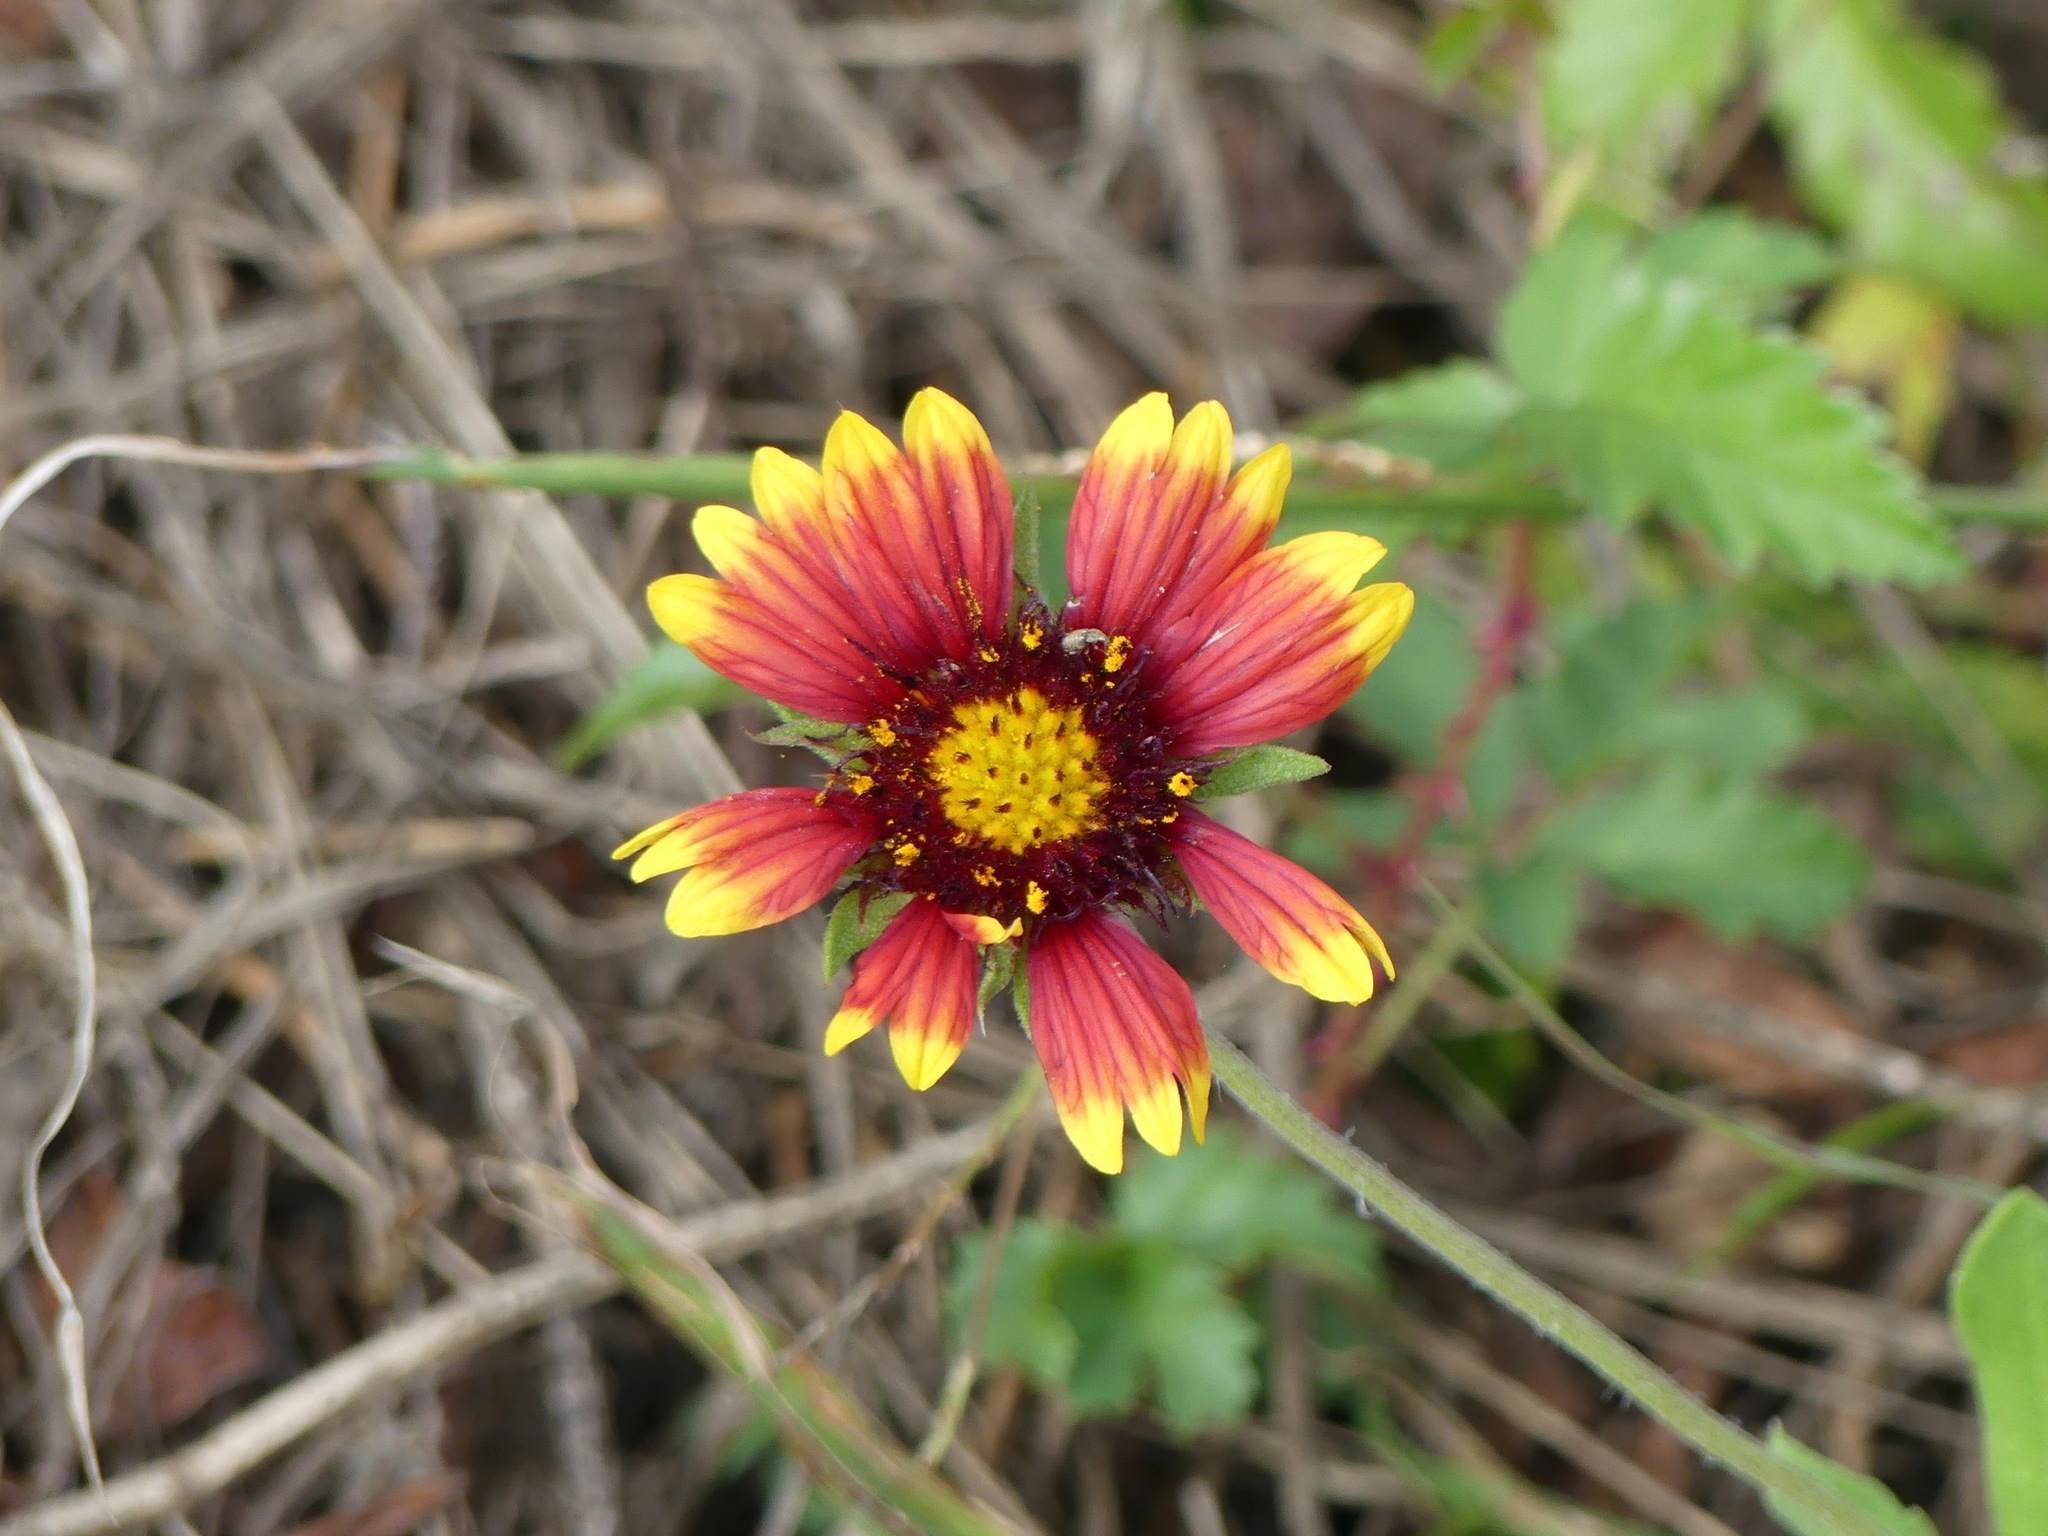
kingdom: Plantae
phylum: Tracheophyta
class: Magnoliopsida
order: Asterales
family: Asteraceae
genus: Gaillardia
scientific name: Gaillardia pulchella
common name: Firewheel
